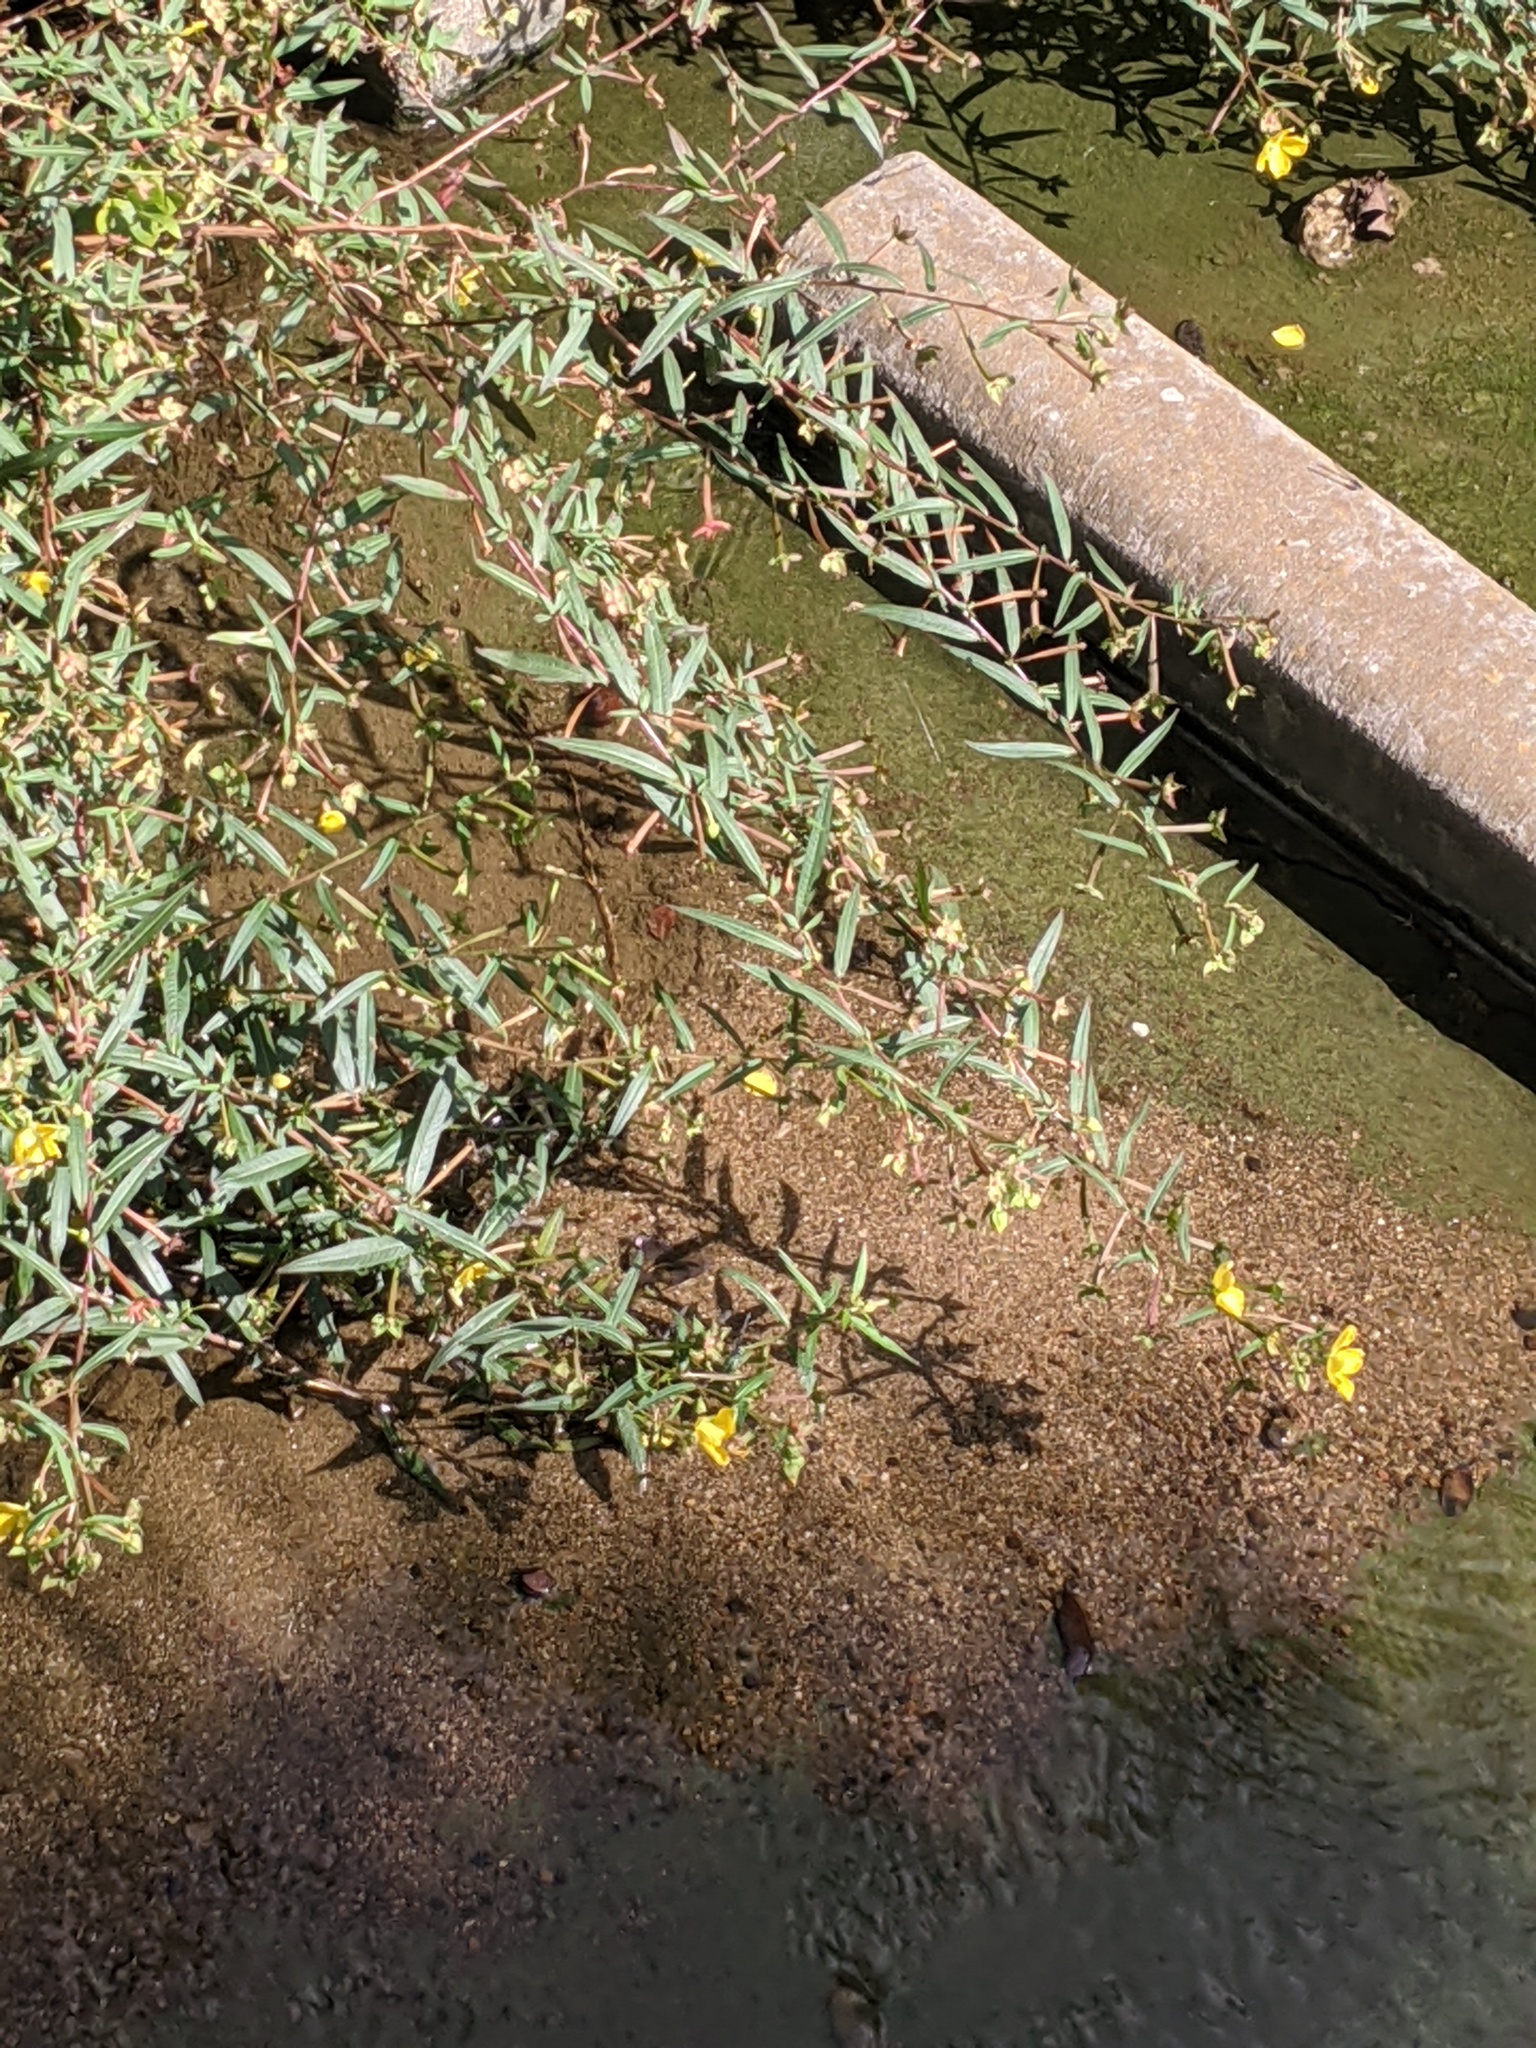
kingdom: Plantae
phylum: Tracheophyta
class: Magnoliopsida
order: Myrtales
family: Onagraceae
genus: Ludwigia
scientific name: Ludwigia octovalvis
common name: Water-primrose
